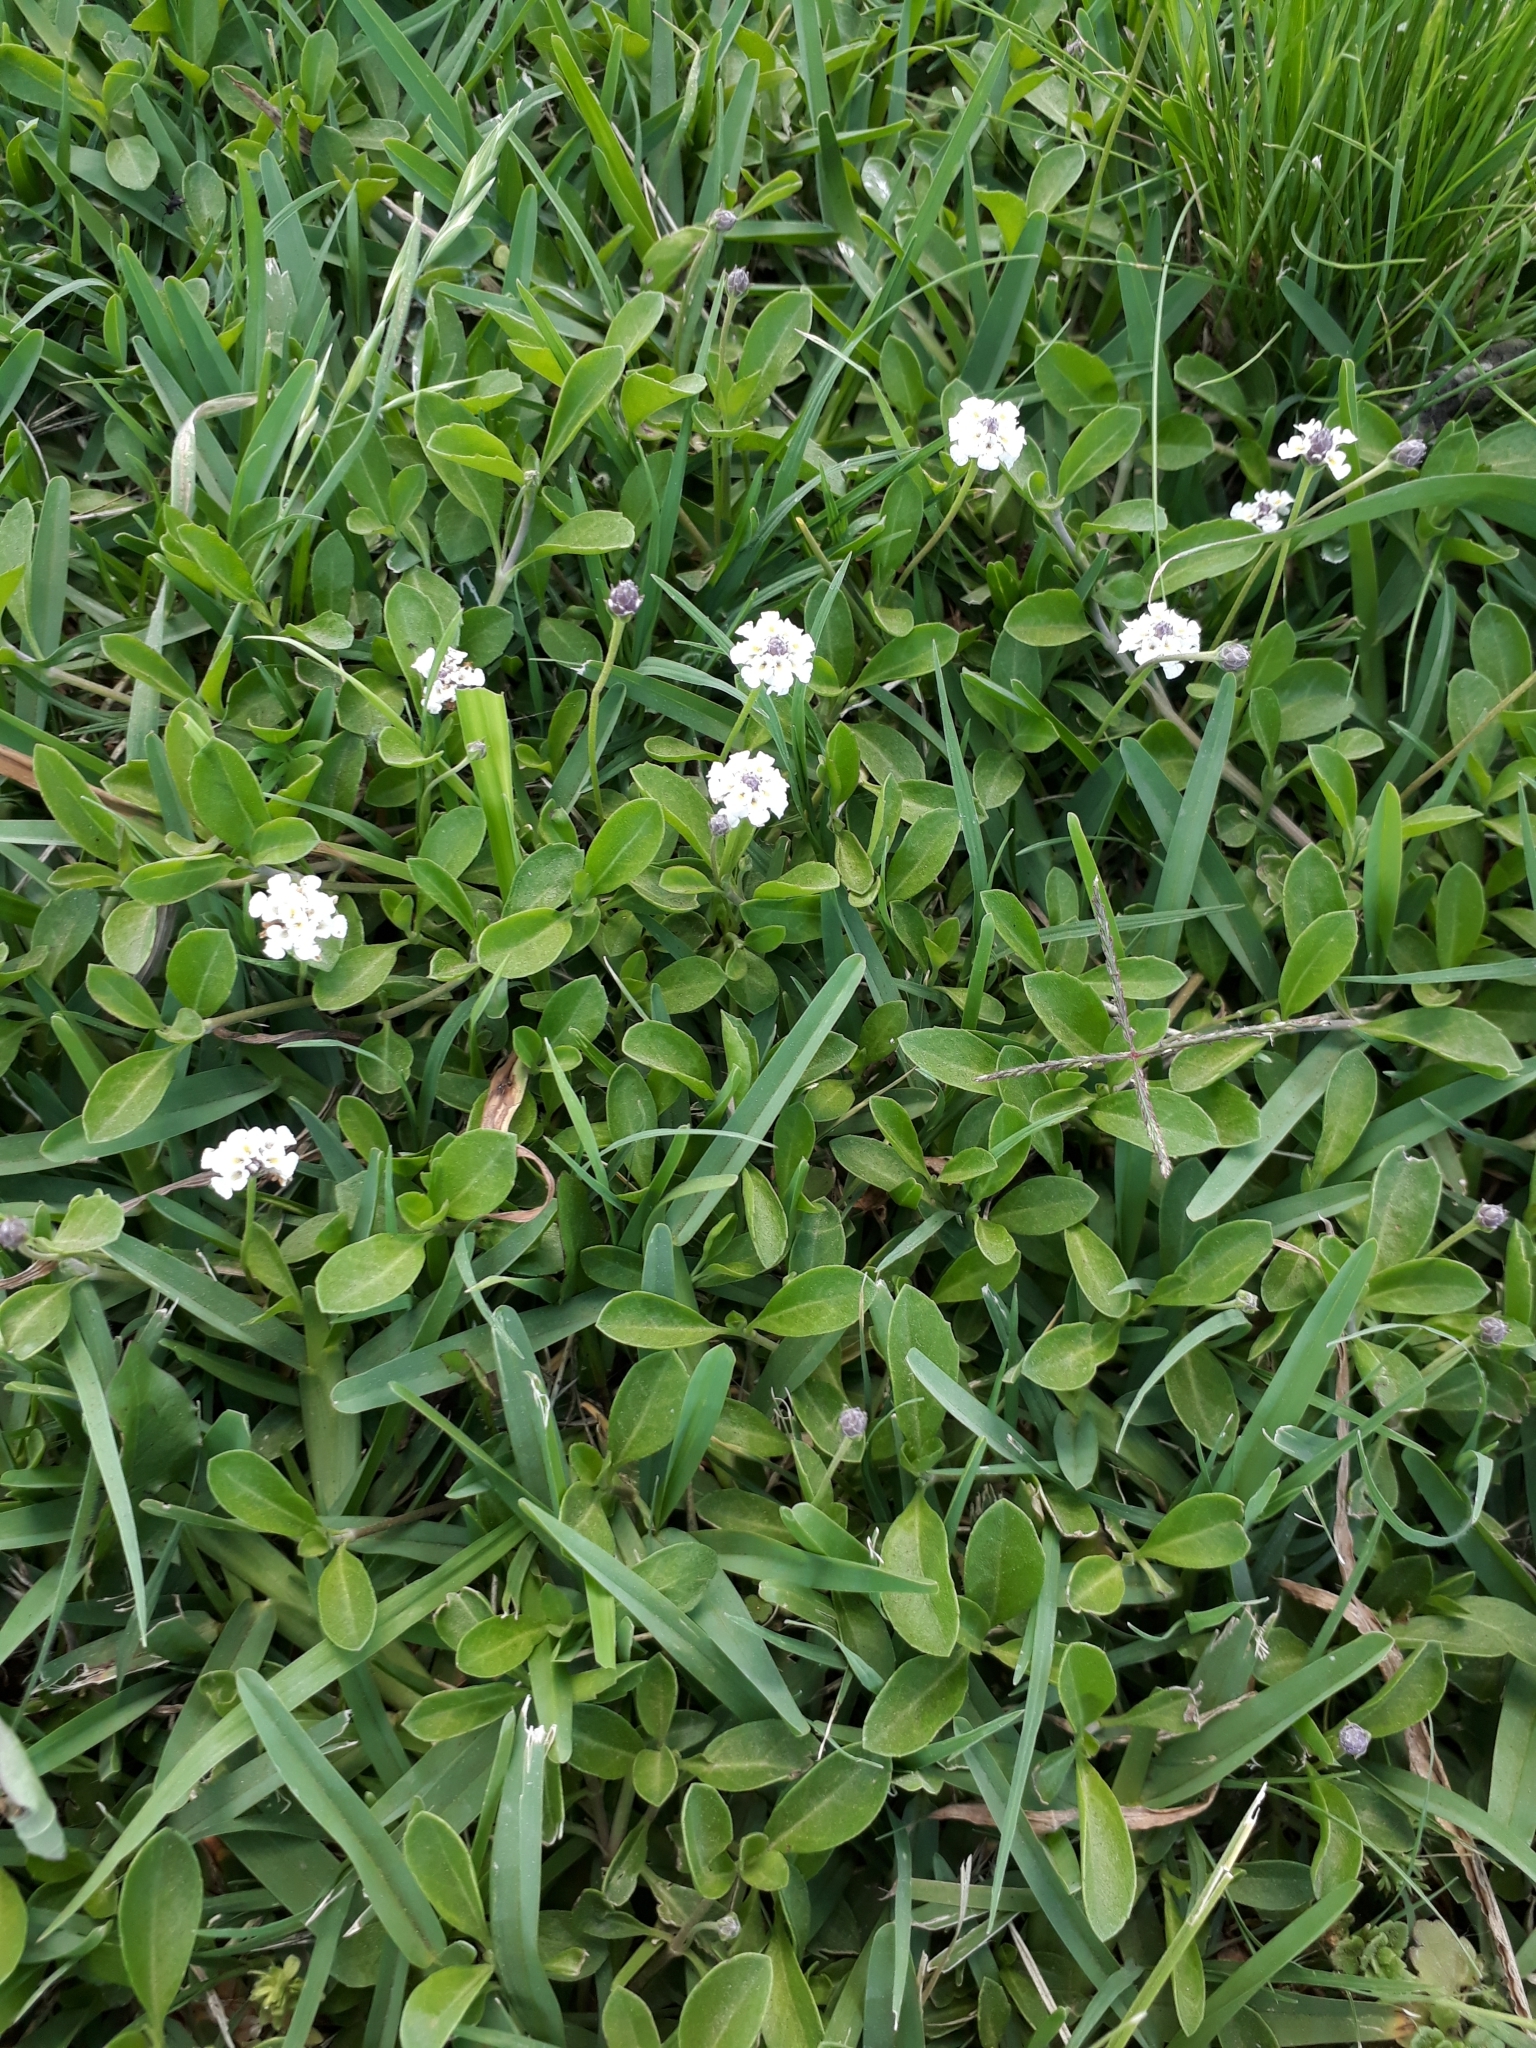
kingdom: Plantae
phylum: Tracheophyta
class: Magnoliopsida
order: Lamiales
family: Verbenaceae
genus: Phyla
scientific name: Phyla nodiflora
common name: Frogfruit
